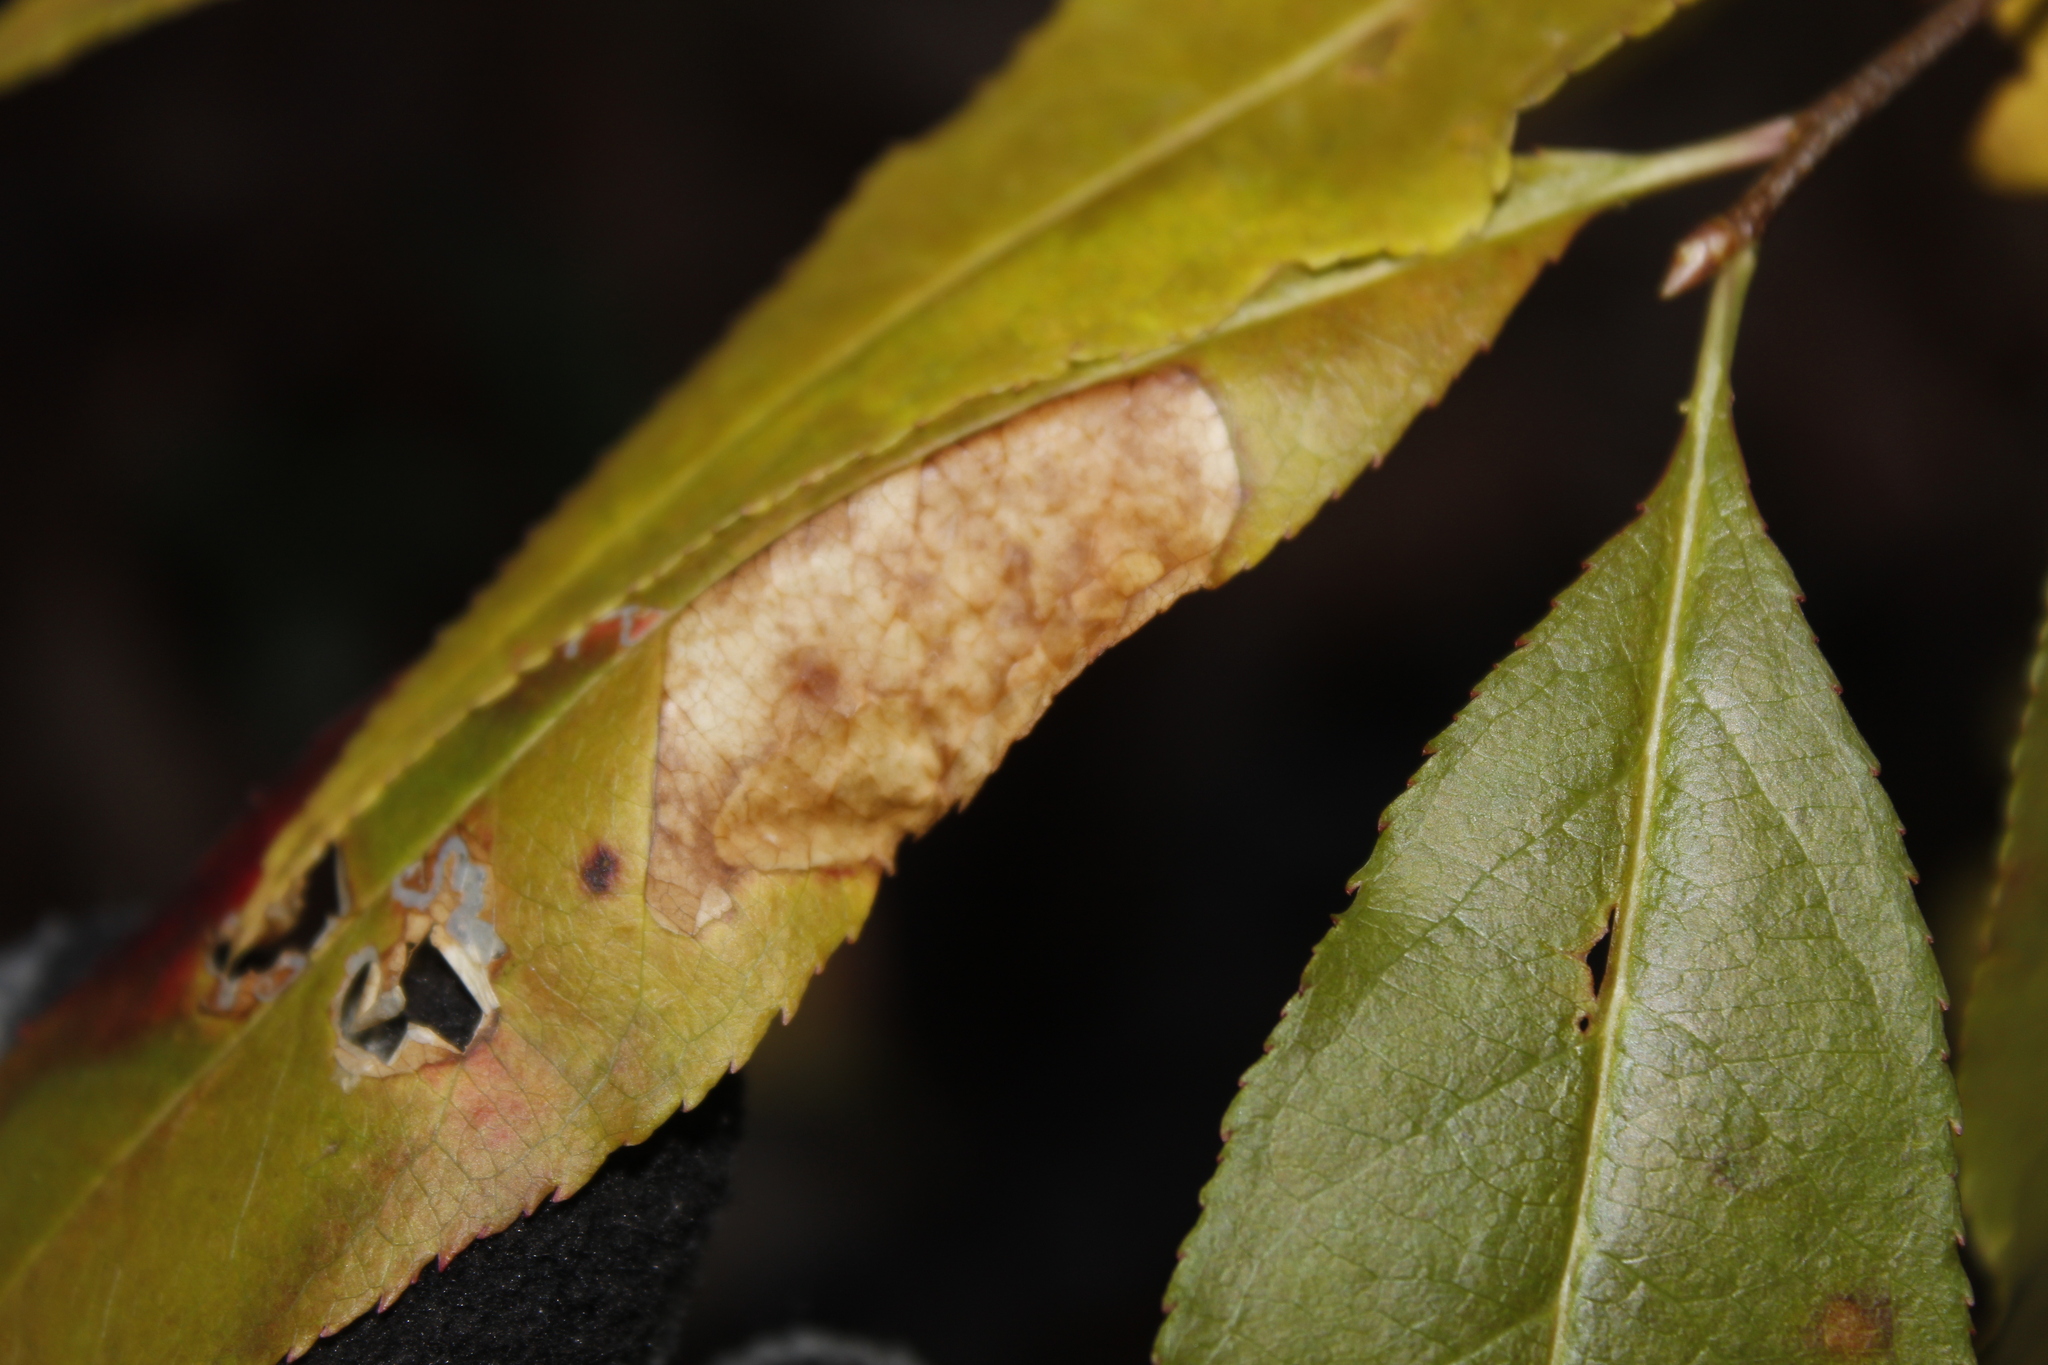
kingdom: Plantae
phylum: Tracheophyta
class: Magnoliopsida
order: Rosales
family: Rosaceae
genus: Prunus
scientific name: Prunus serotina
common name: Black cherry
